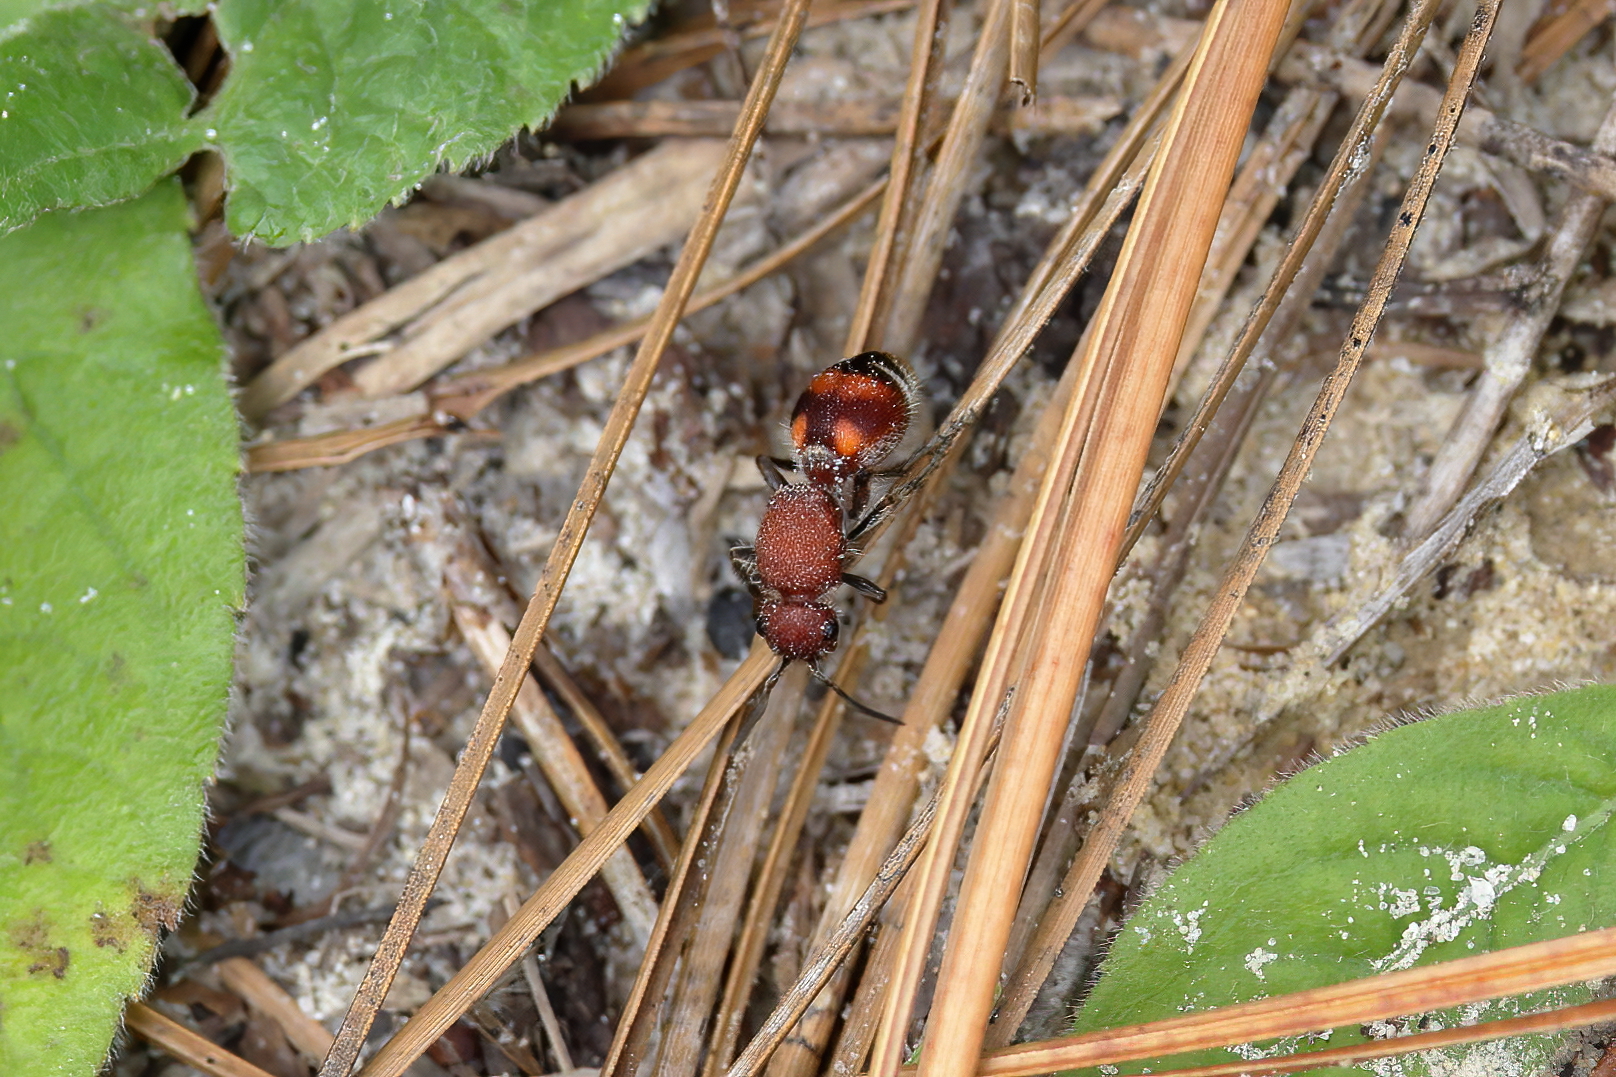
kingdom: Animalia
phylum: Arthropoda
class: Insecta
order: Hymenoptera
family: Mutillidae
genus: Dasymutilla
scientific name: Dasymutilla
